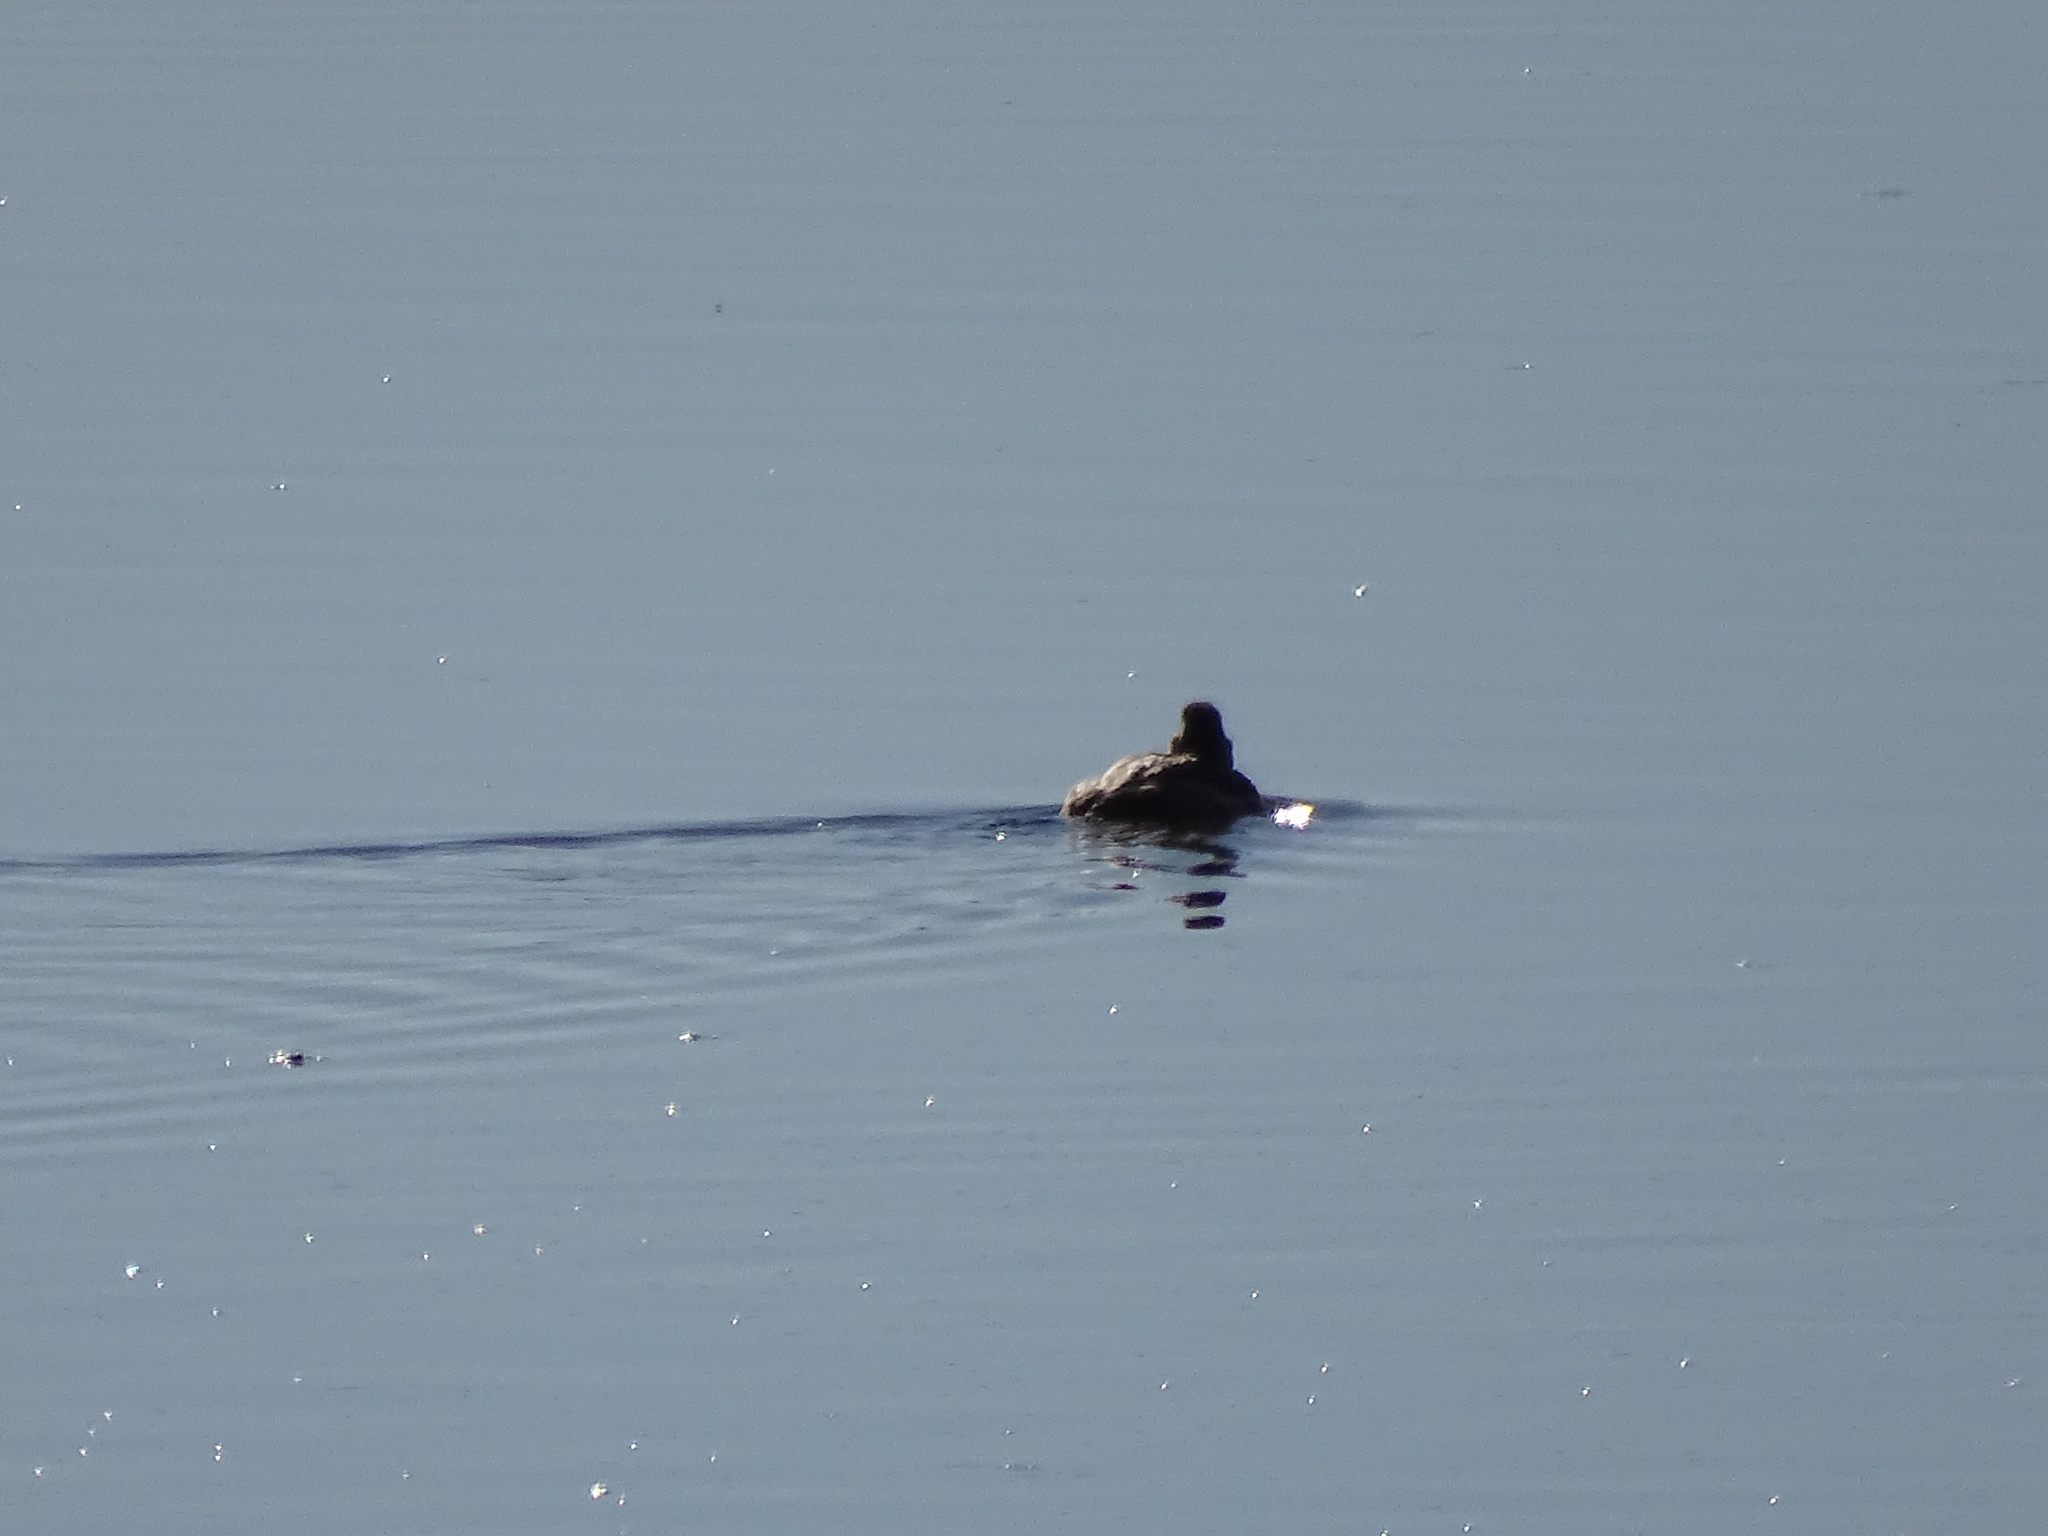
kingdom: Animalia
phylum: Chordata
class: Aves
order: Anseriformes
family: Anatidae
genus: Oxyura
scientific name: Oxyura jamaicensis
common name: Ruddy duck
